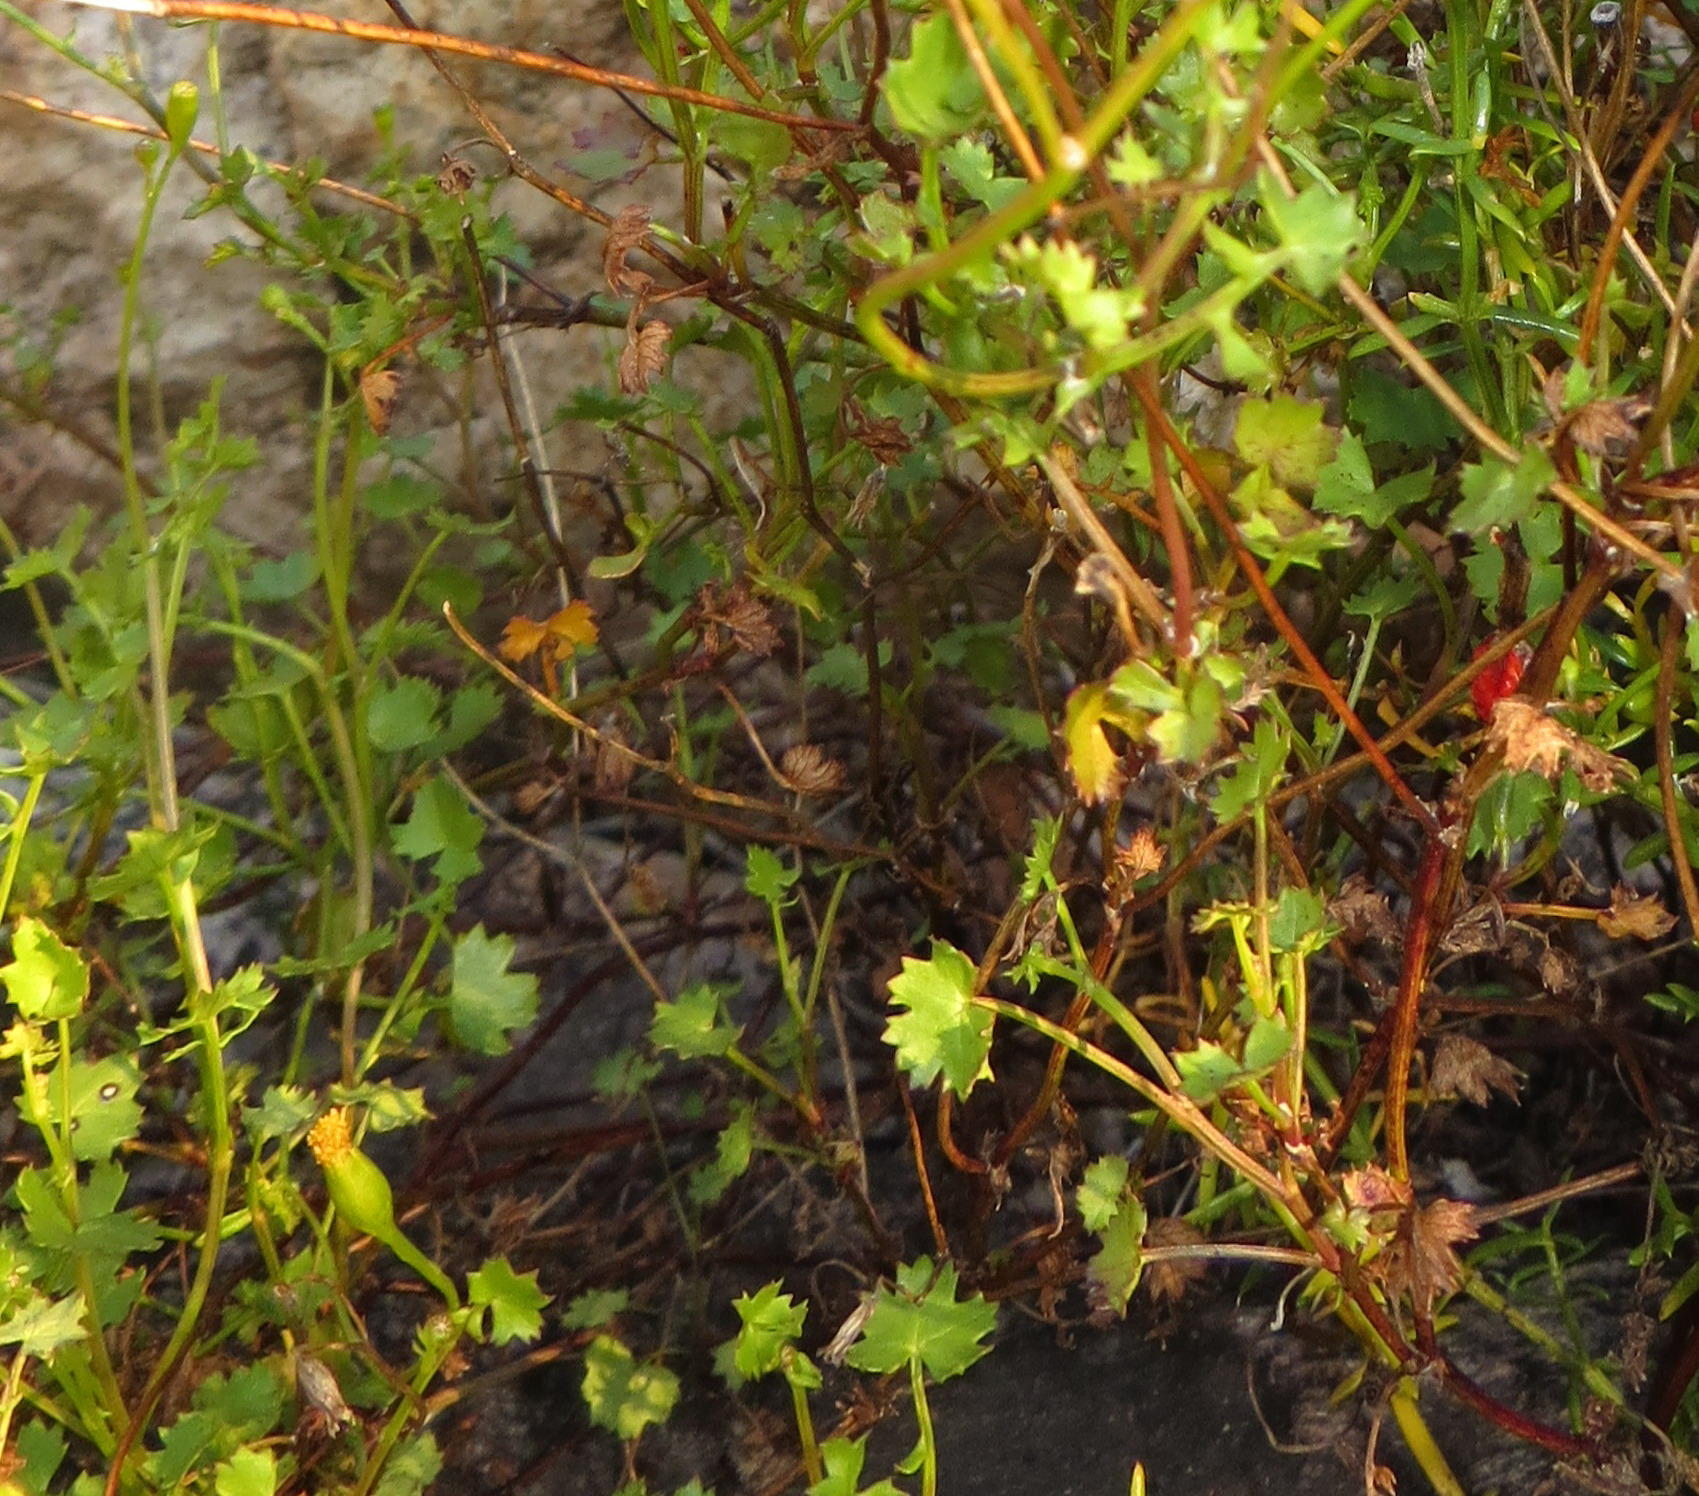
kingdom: Plantae
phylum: Tracheophyta
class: Magnoliopsida
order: Asterales
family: Asteraceae
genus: Cineraria
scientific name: Cineraria lobata
